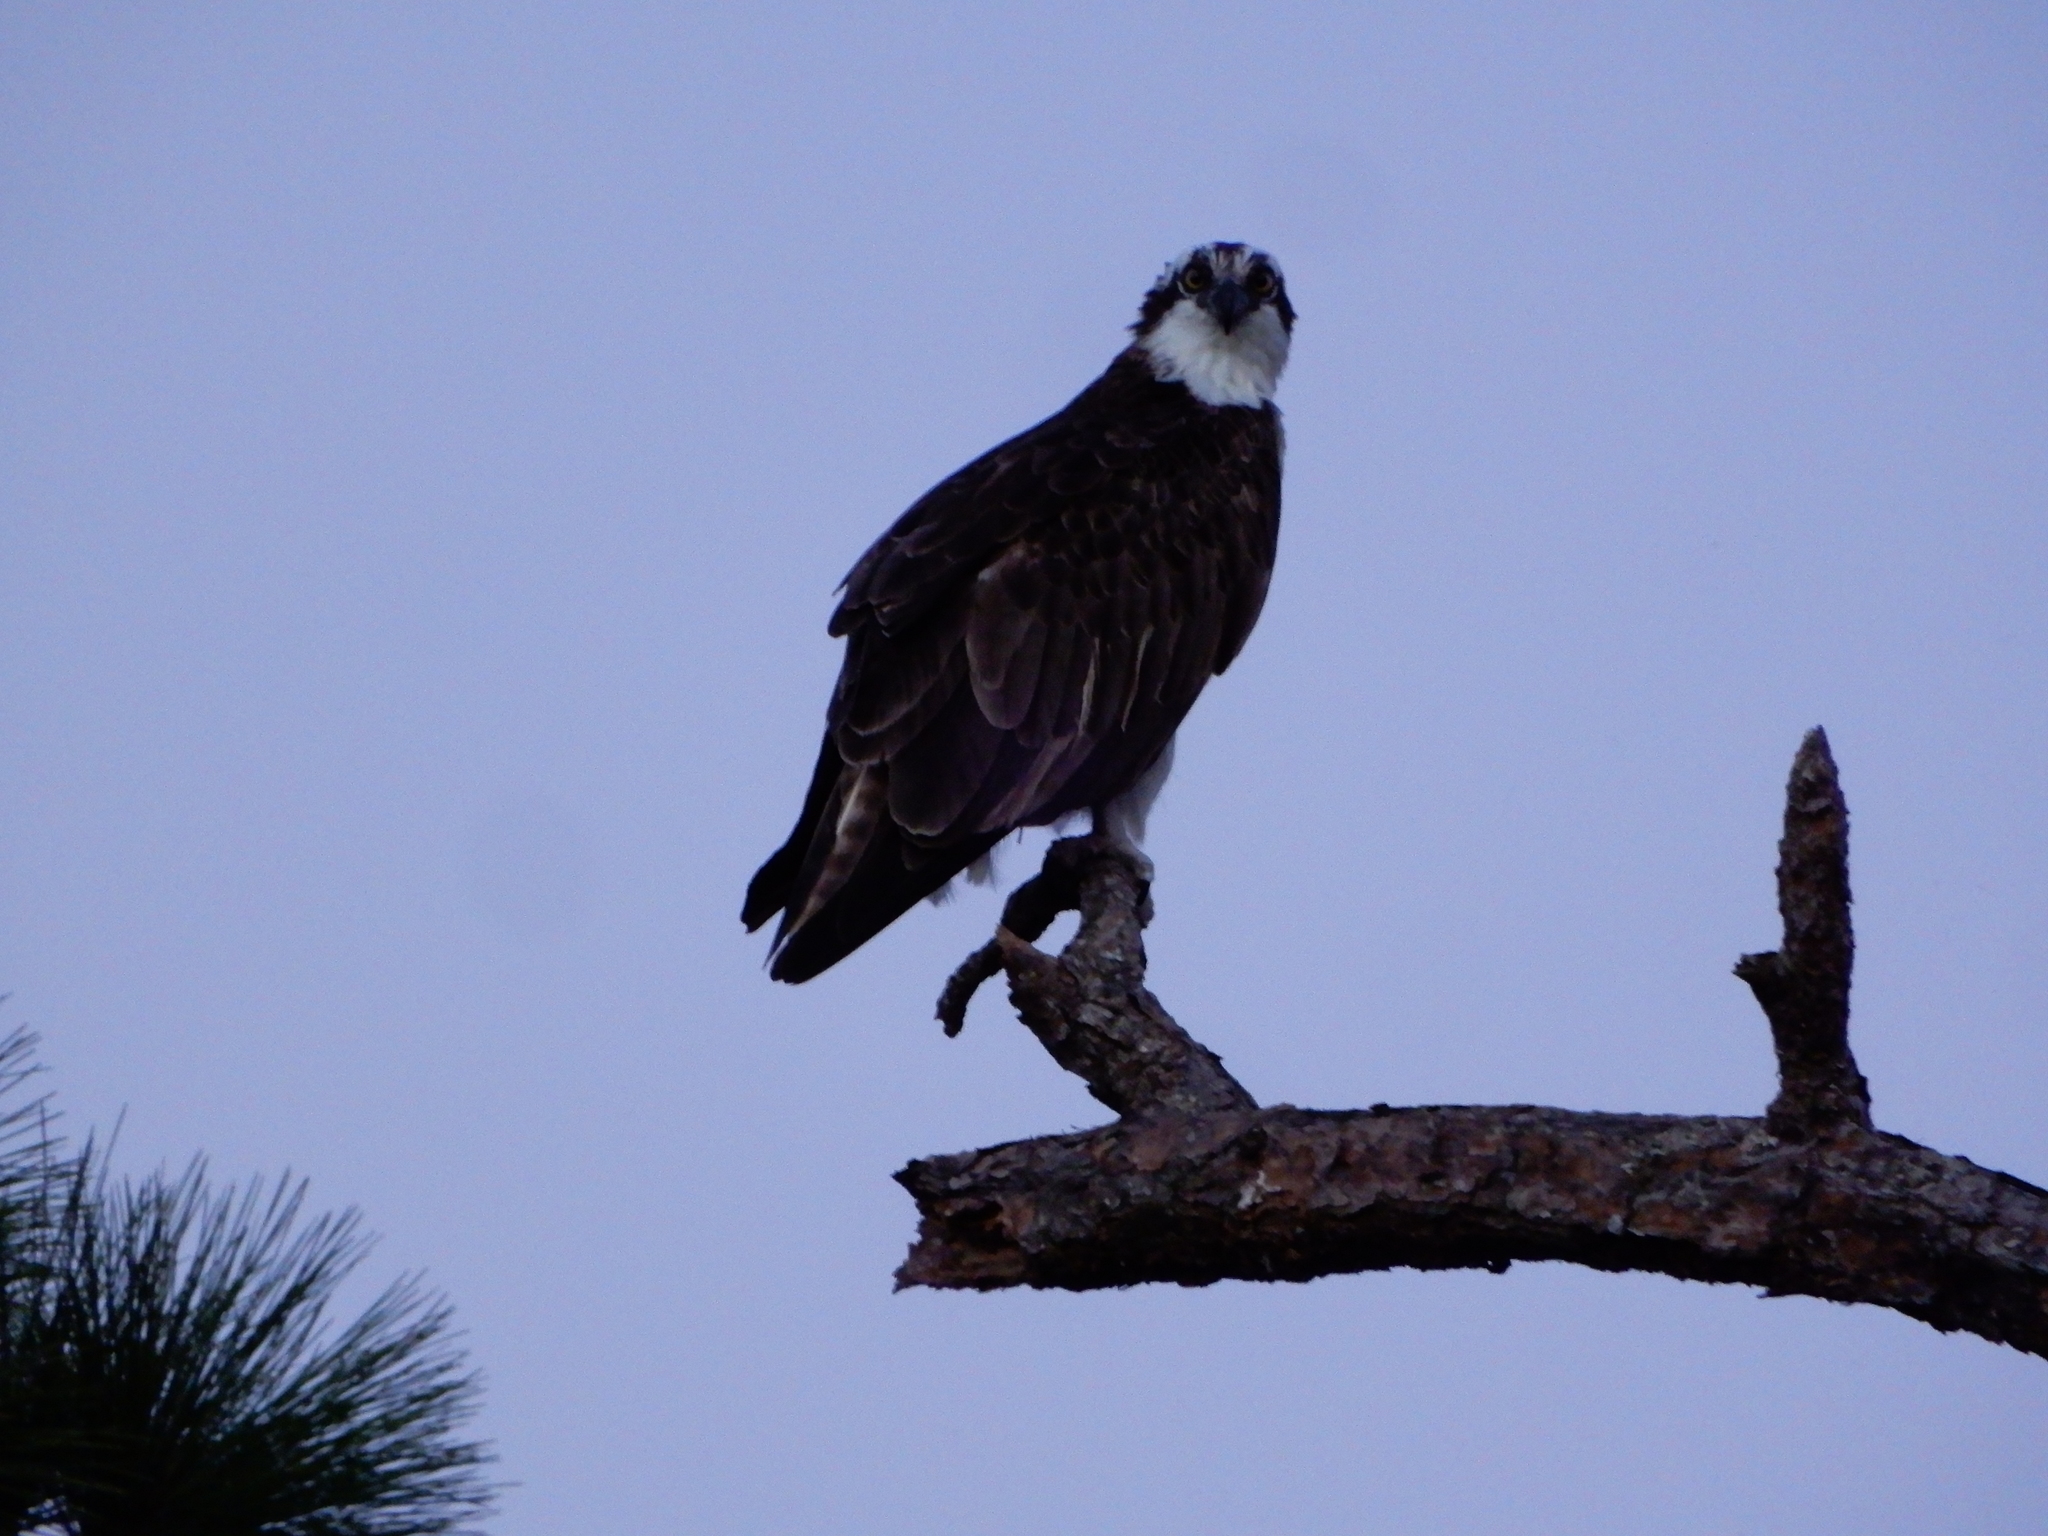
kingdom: Animalia
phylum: Chordata
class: Aves
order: Accipitriformes
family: Pandionidae
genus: Pandion
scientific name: Pandion haliaetus
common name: Osprey
